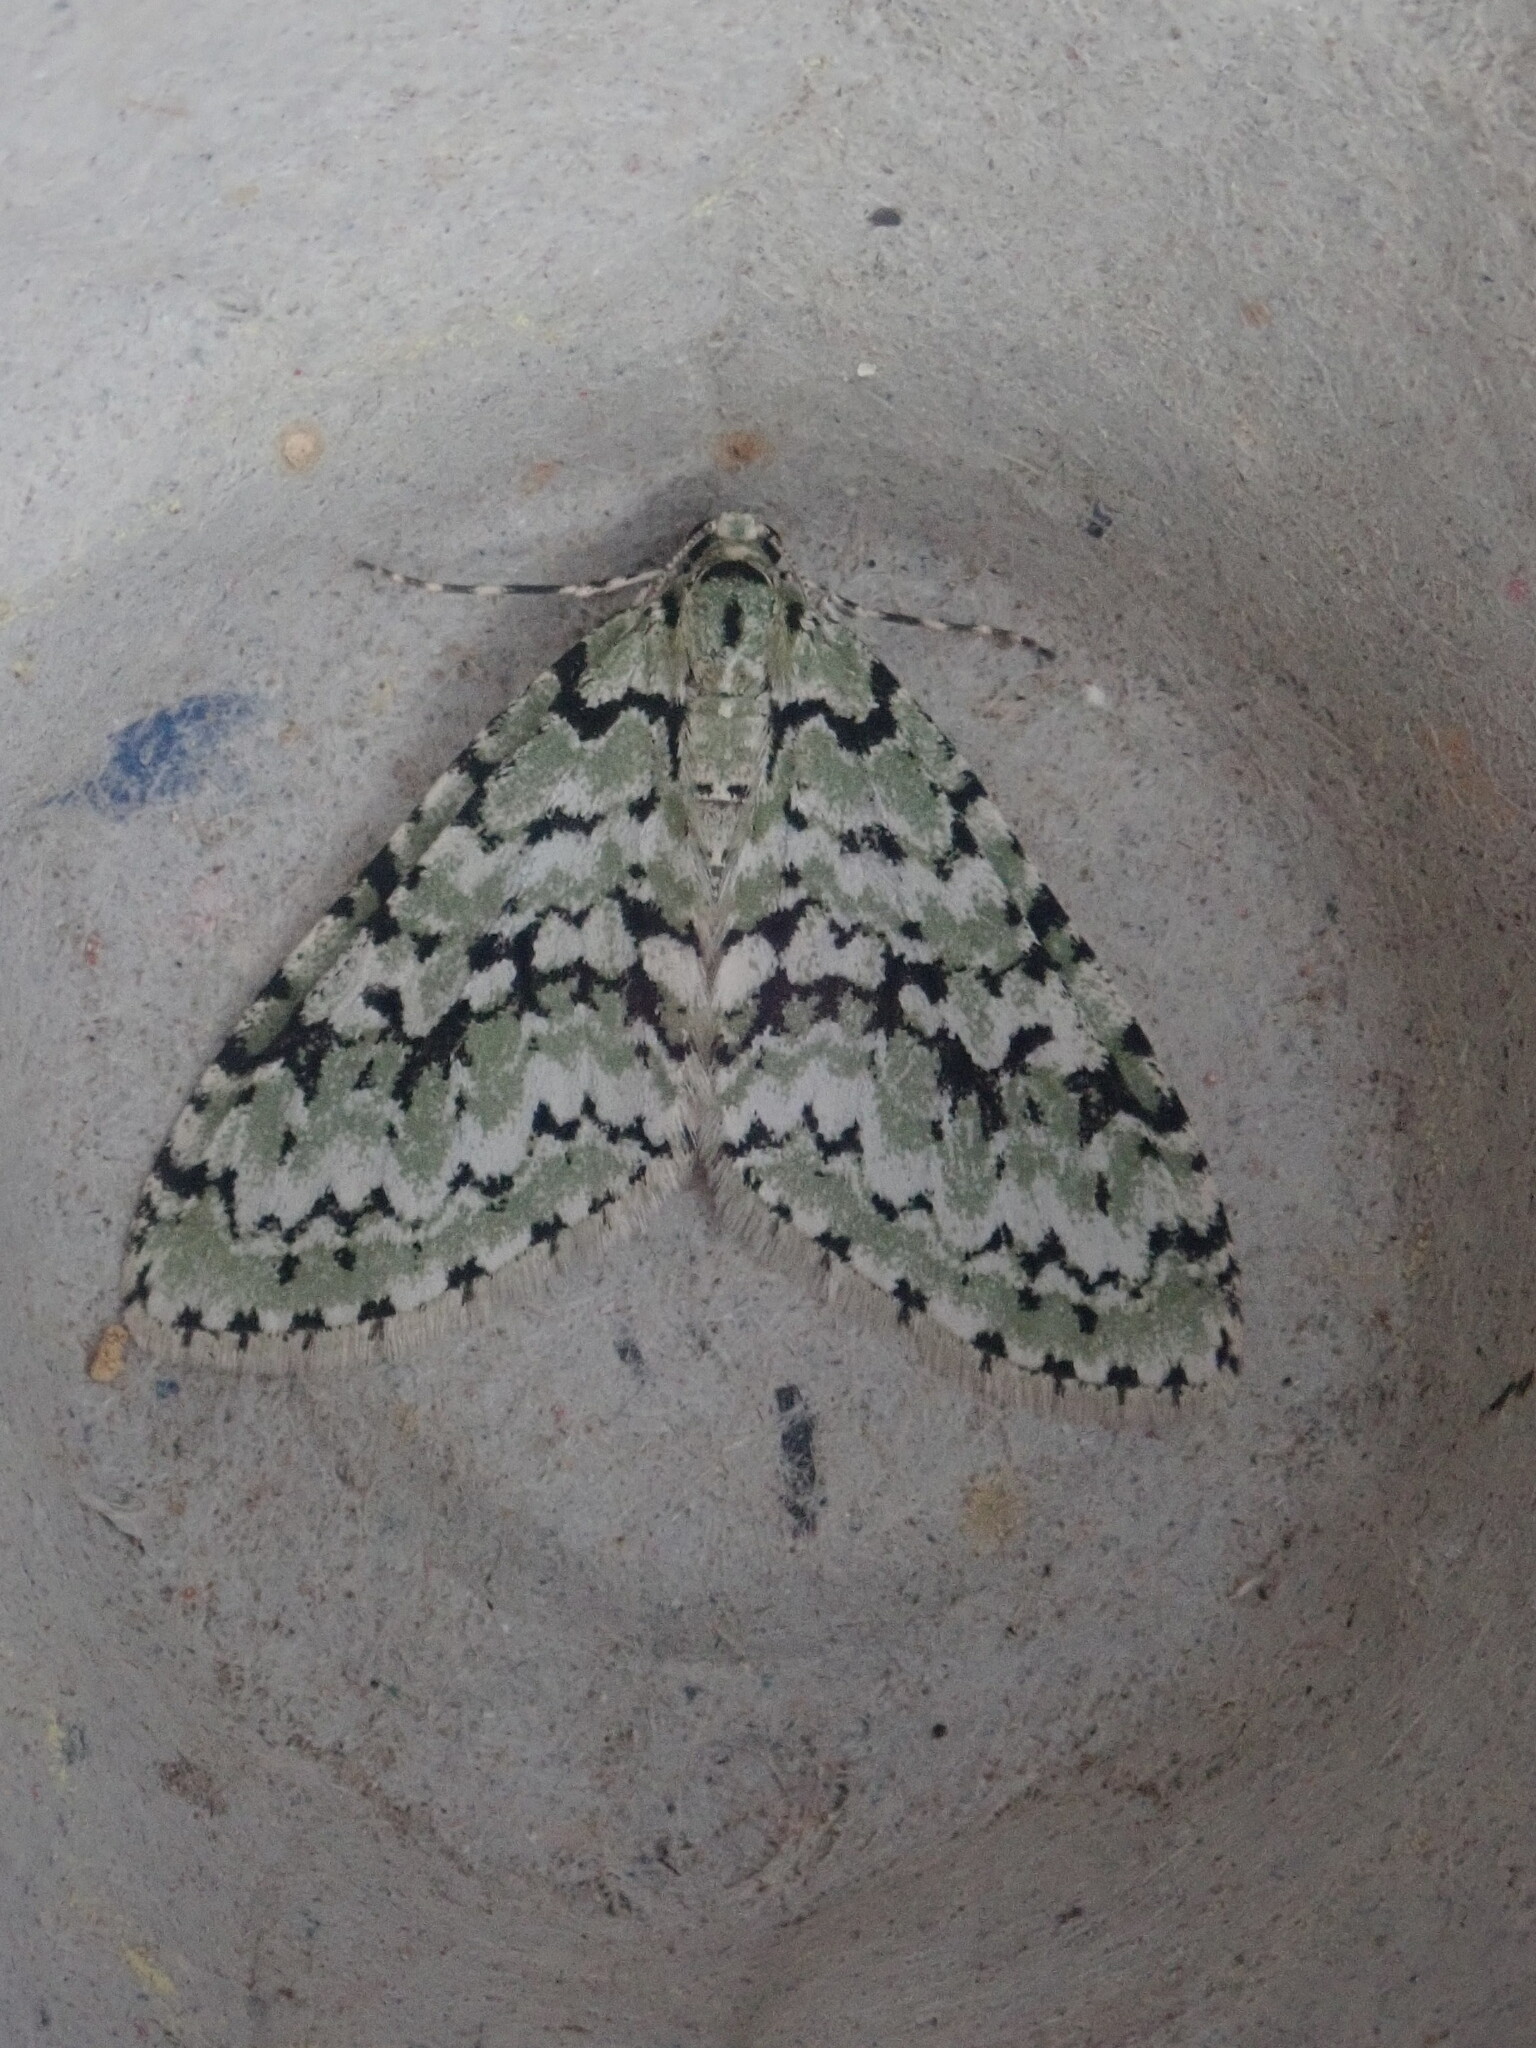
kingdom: Animalia
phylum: Arthropoda
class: Insecta
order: Lepidoptera
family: Geometridae
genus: Cladara
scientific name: Cladara atroliturata
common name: Scribbler
